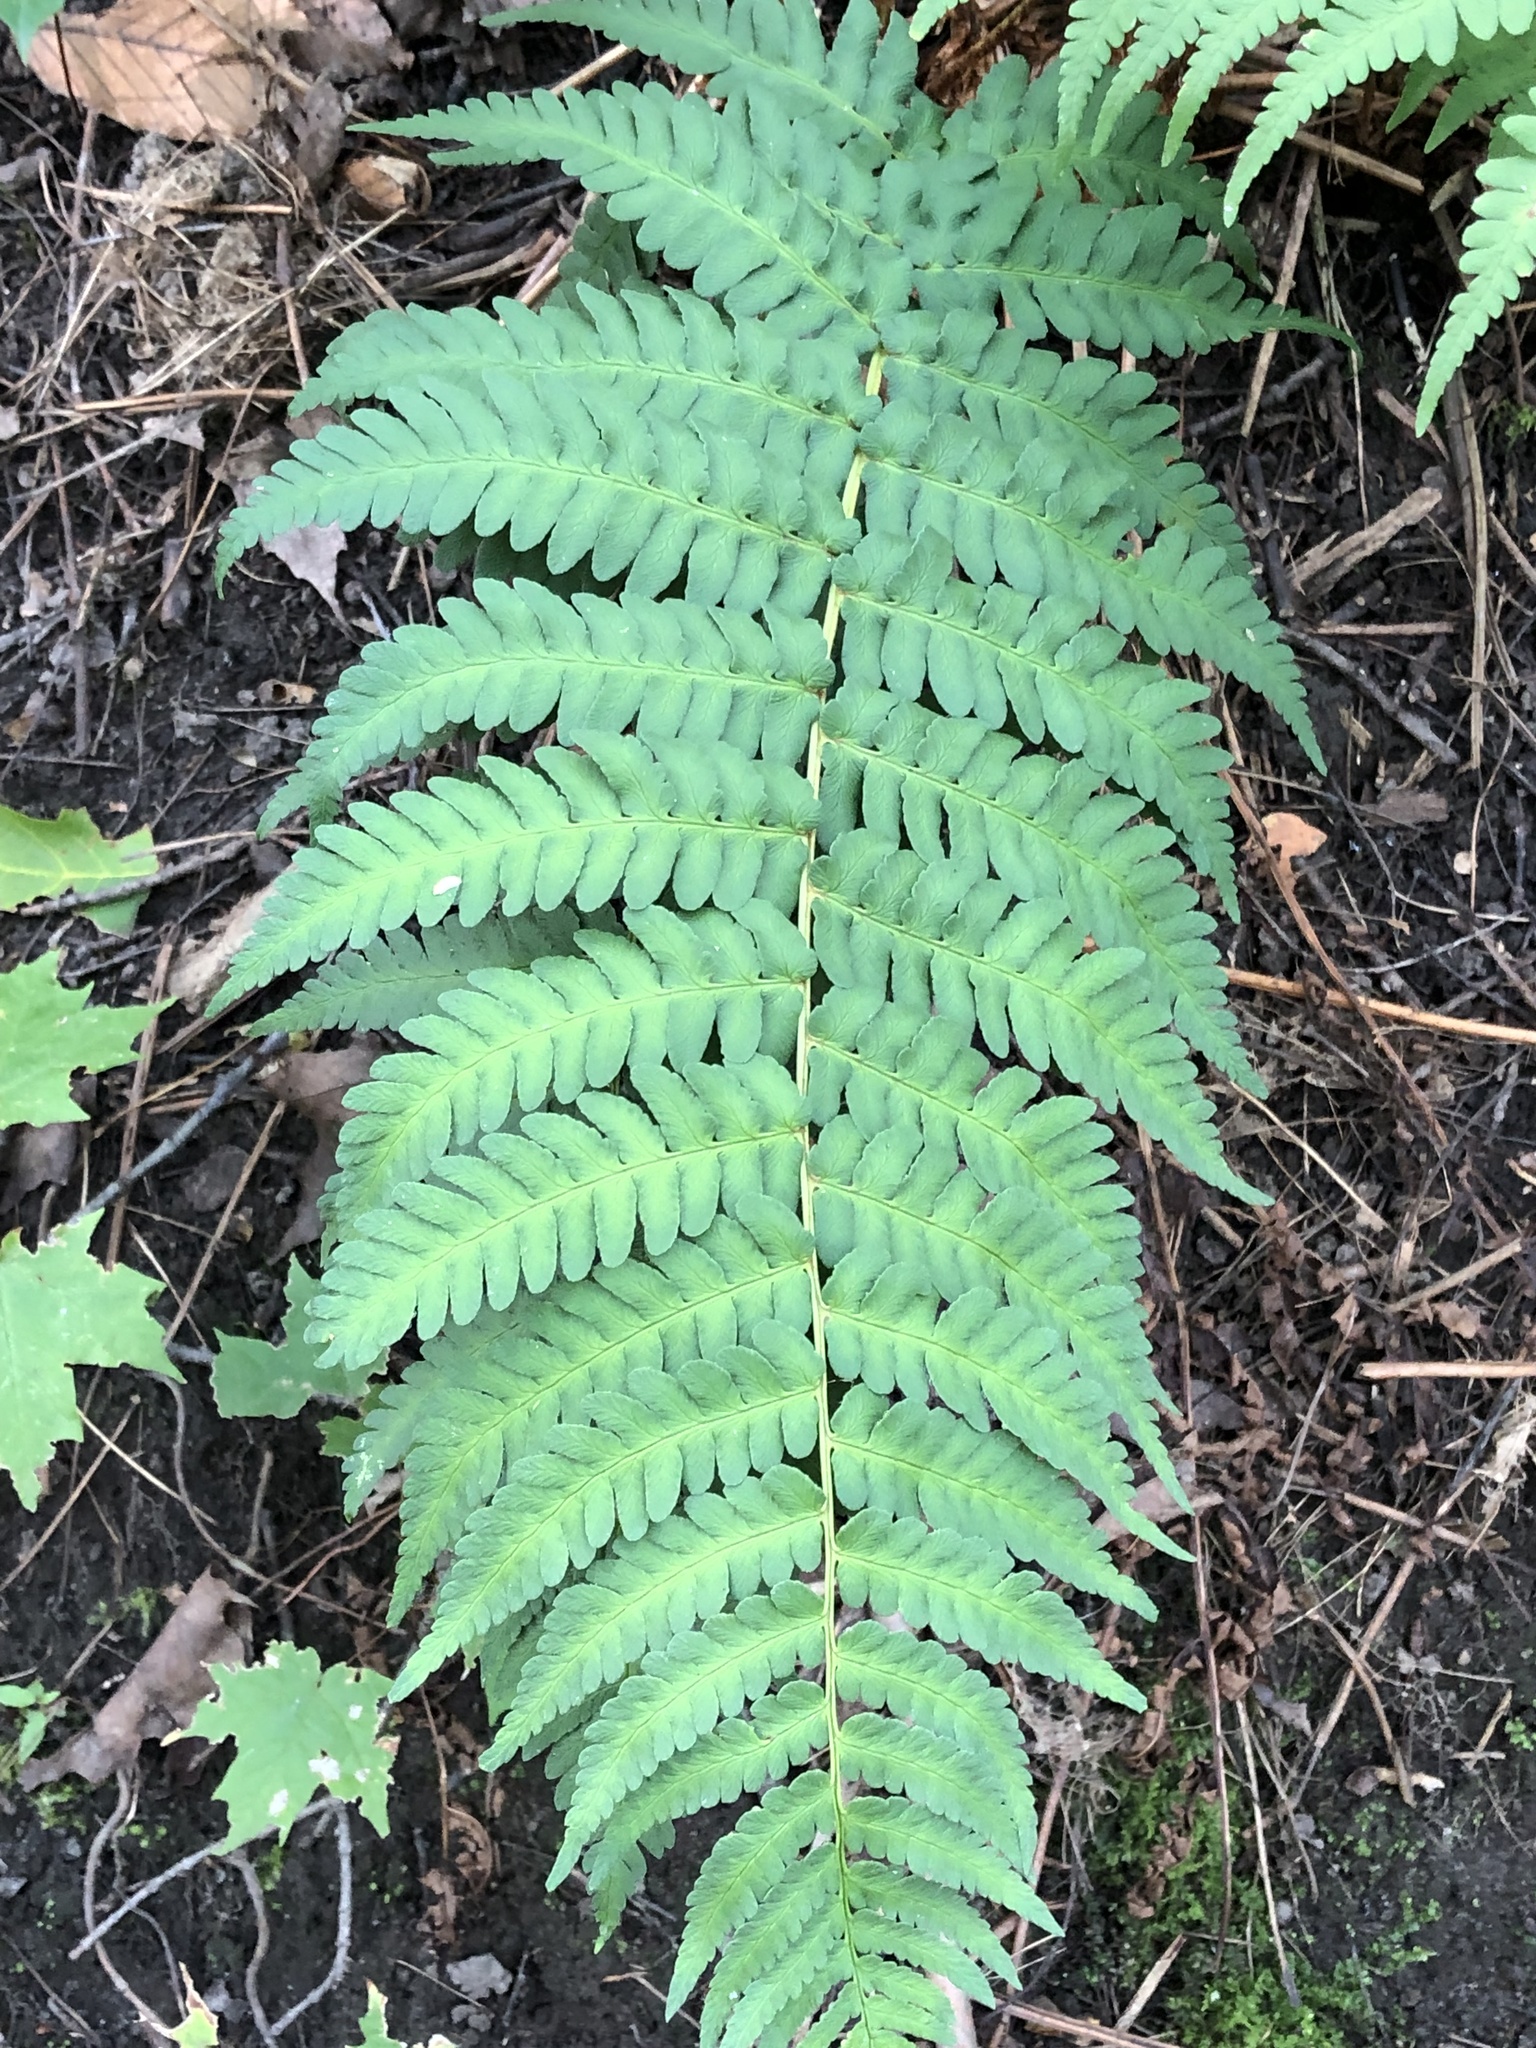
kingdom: Plantae
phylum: Tracheophyta
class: Polypodiopsida
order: Polypodiales
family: Dryopteridaceae
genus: Dryopteris
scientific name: Dryopteris marginalis
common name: Marginal wood fern
